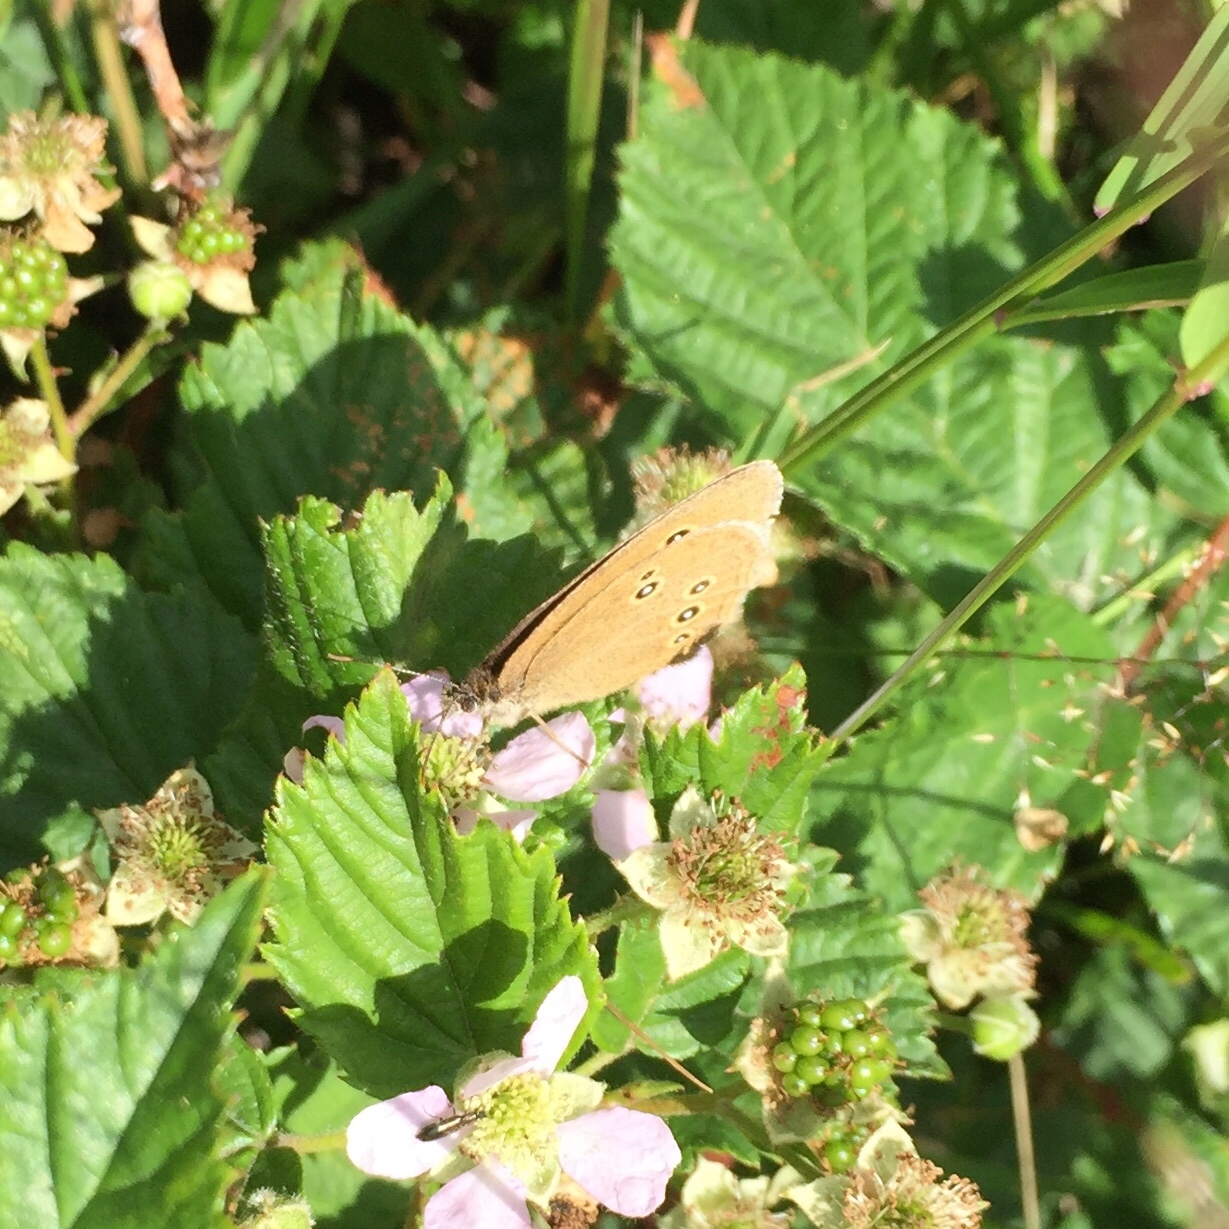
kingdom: Animalia
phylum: Arthropoda
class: Insecta
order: Lepidoptera
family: Nymphalidae
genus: Aphantopus
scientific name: Aphantopus hyperantus
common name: Ringlet
